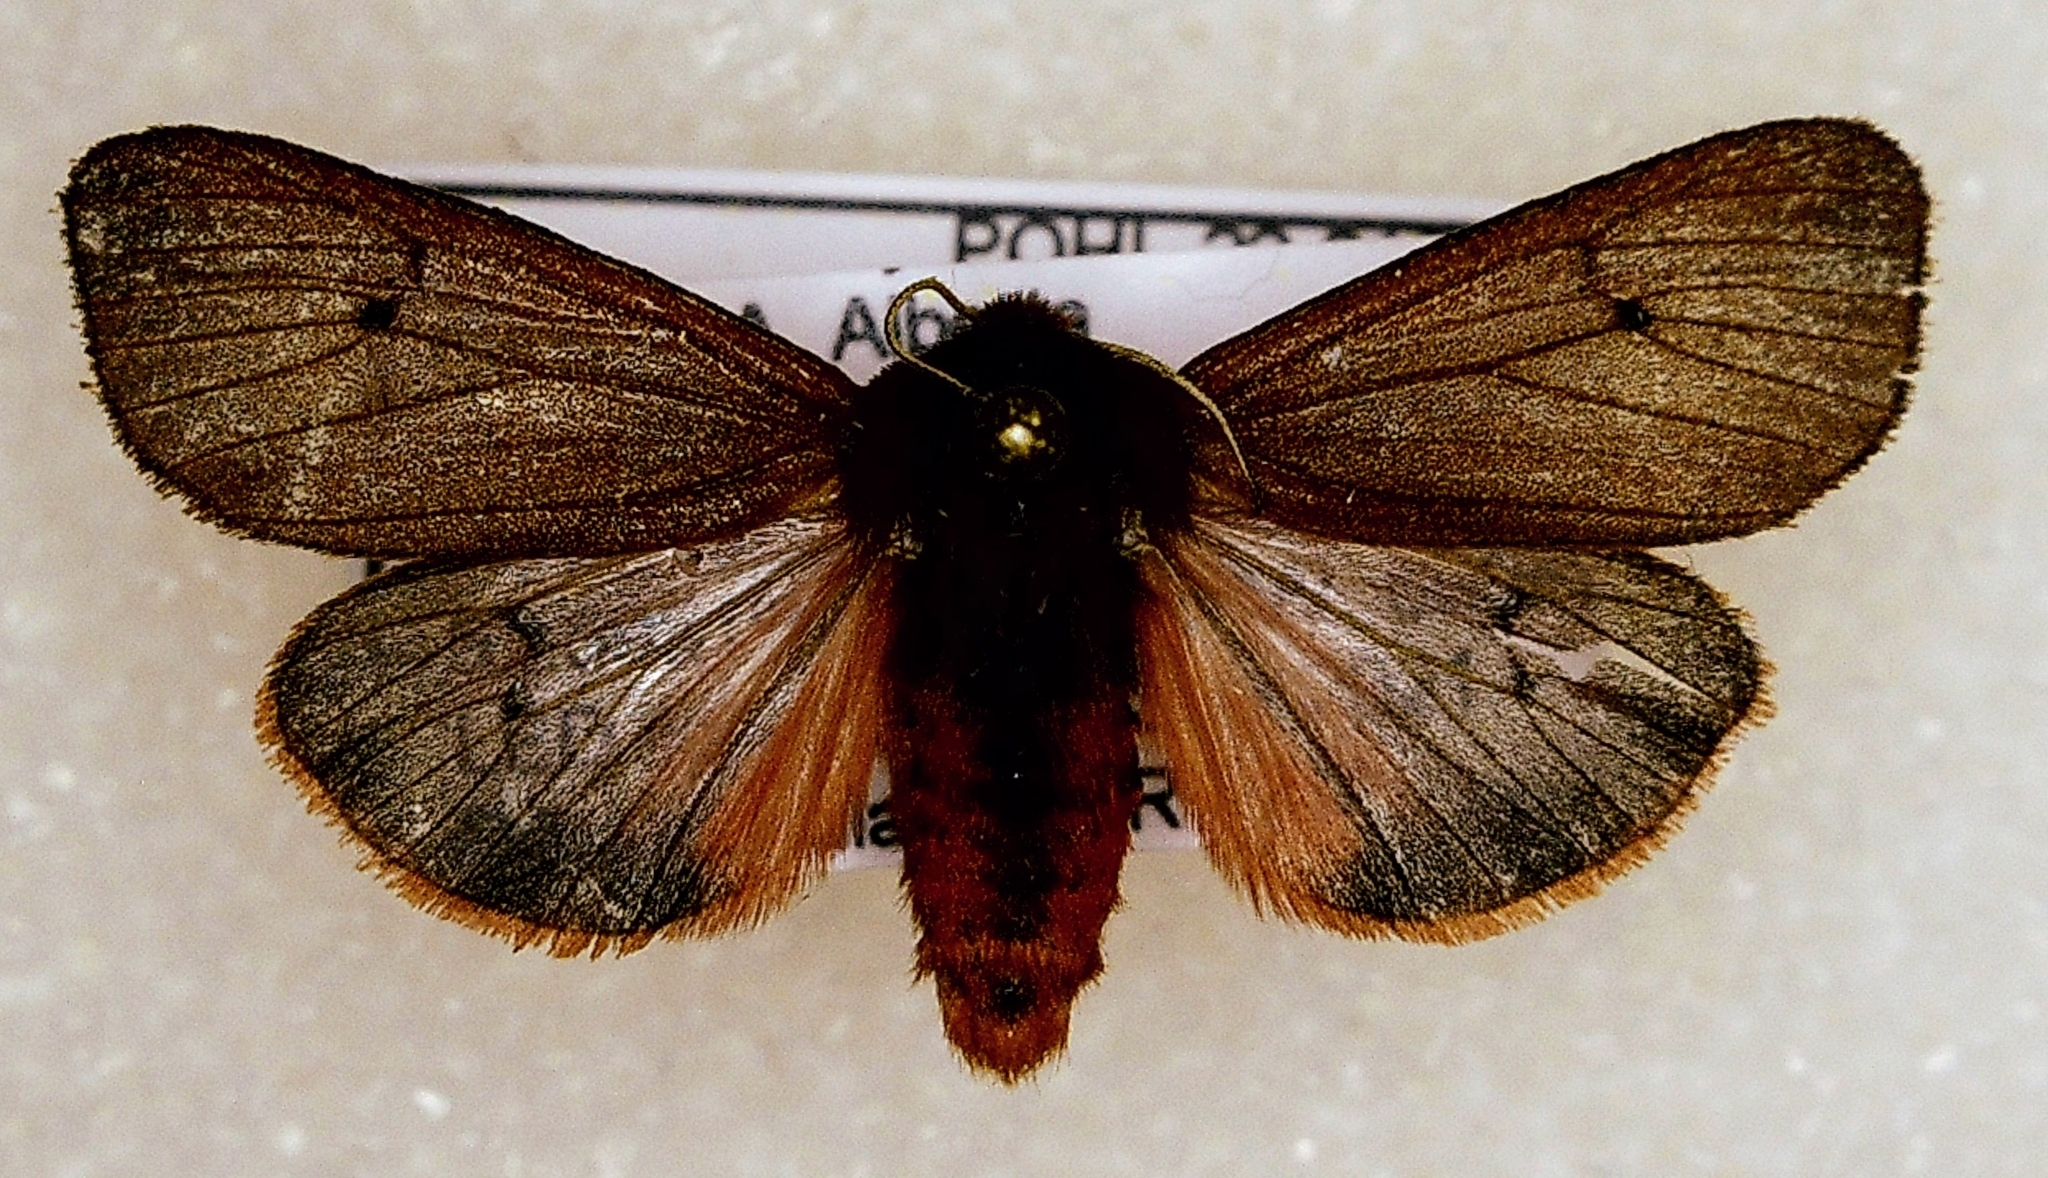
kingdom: Animalia
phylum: Arthropoda
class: Insecta
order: Lepidoptera
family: Erebidae
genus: Phragmatobia
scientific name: Phragmatobia fuliginosa
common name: Ruby tiger
